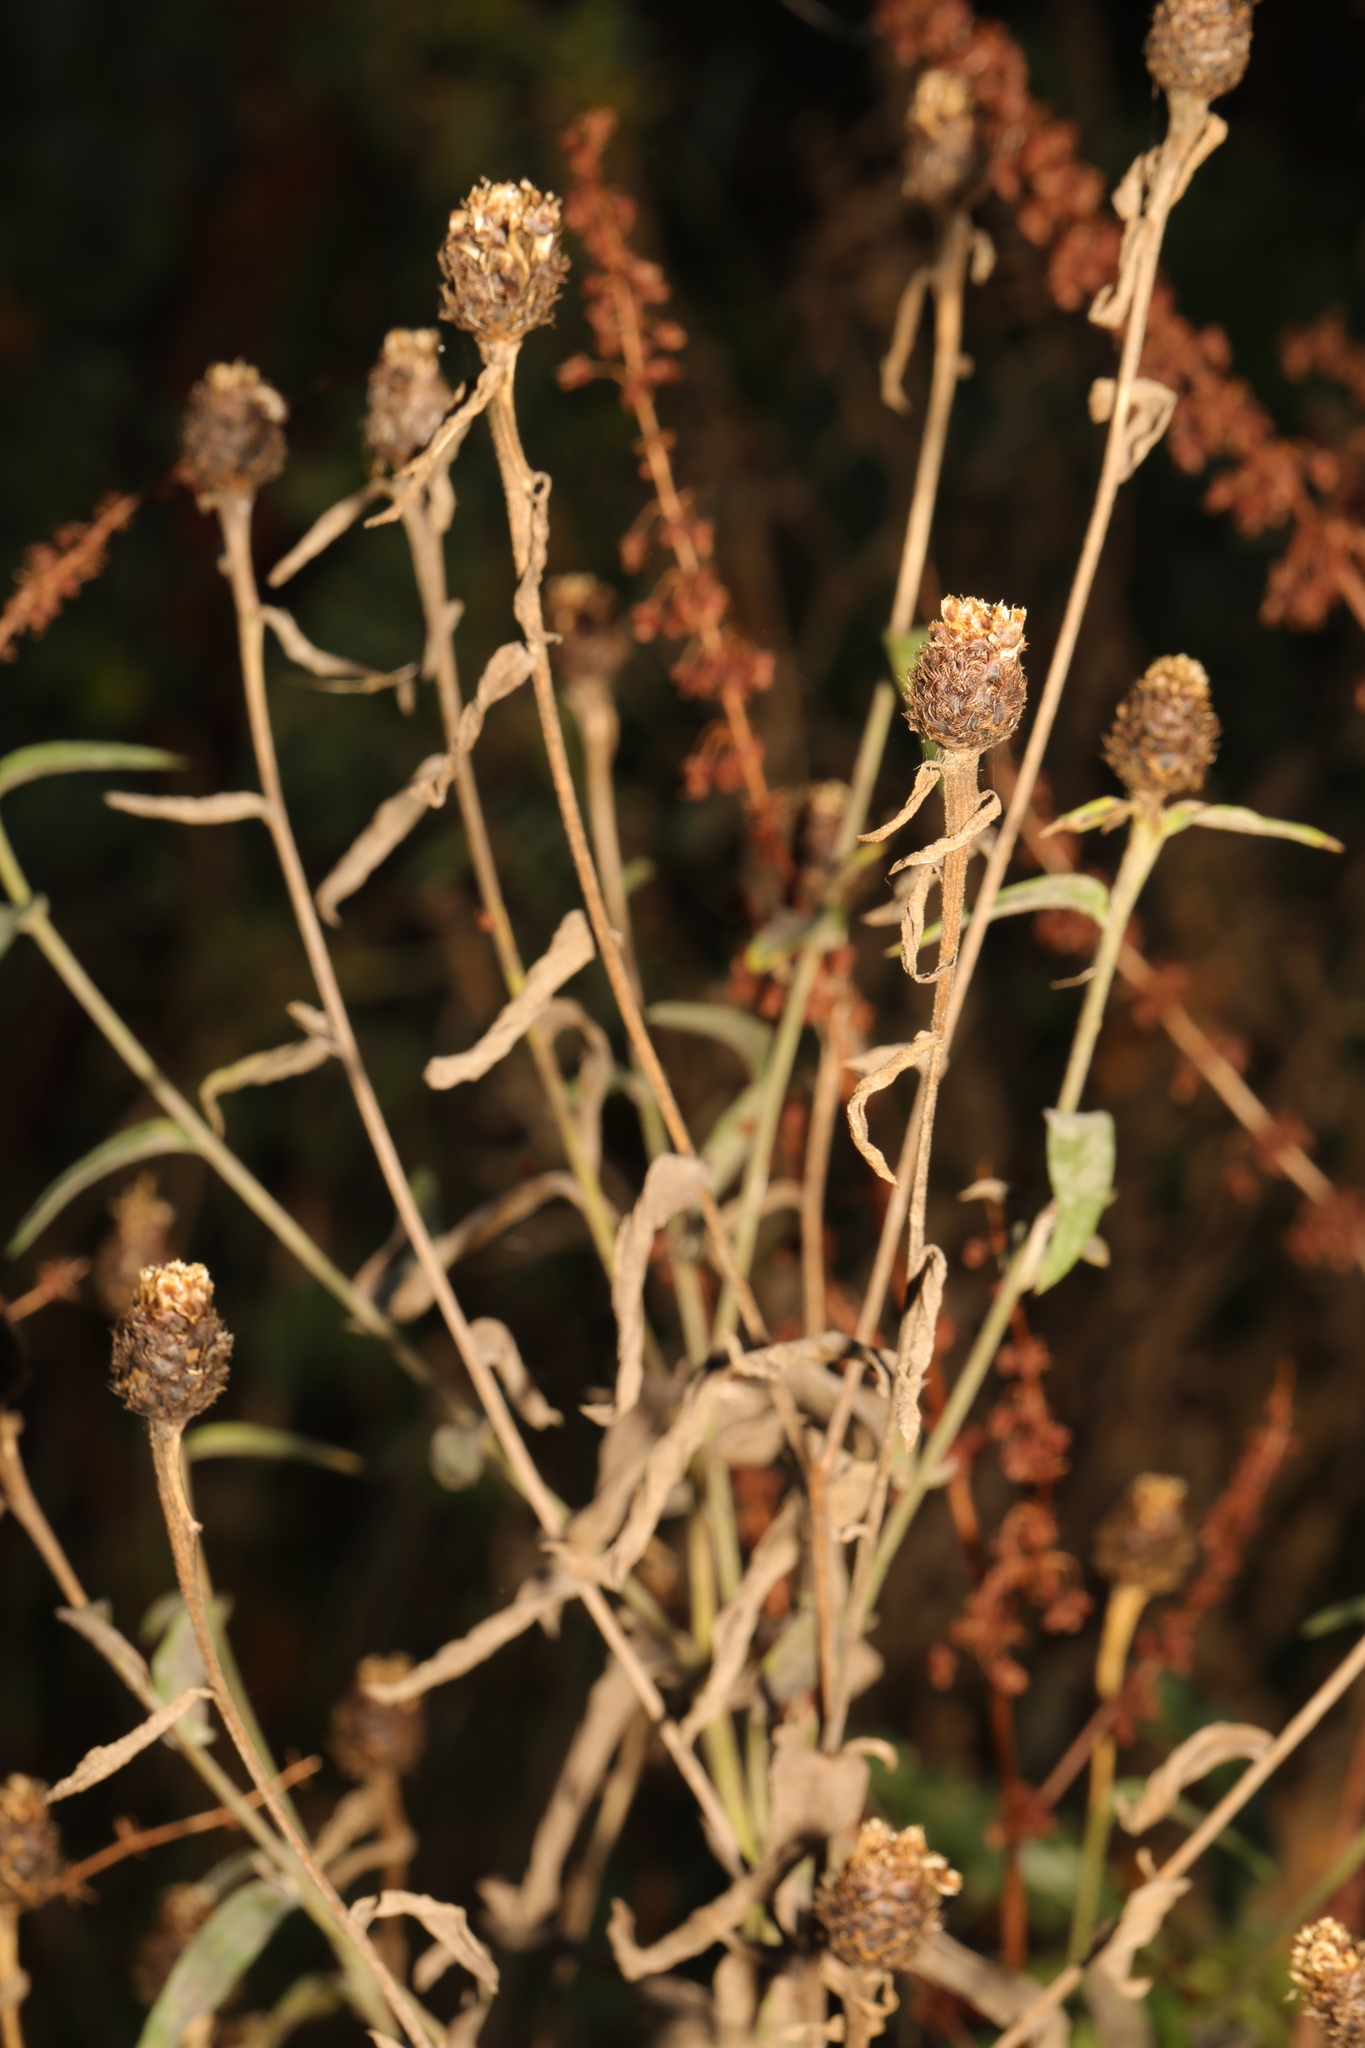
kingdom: Plantae
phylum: Tracheophyta
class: Magnoliopsida
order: Asterales
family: Asteraceae
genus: Centaurea
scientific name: Centaurea nigra
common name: Lesser knapweed
